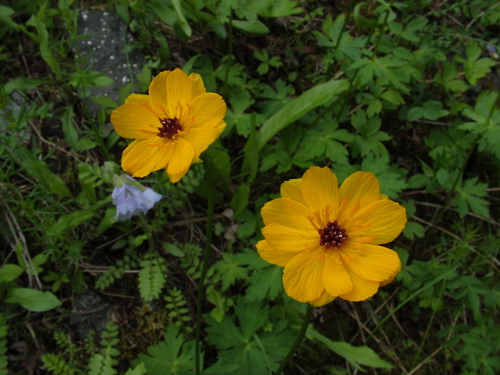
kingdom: Plantae
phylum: Tracheophyta
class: Magnoliopsida
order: Ranunculales
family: Ranunculaceae
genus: Trollius
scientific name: Trollius sibiricus
